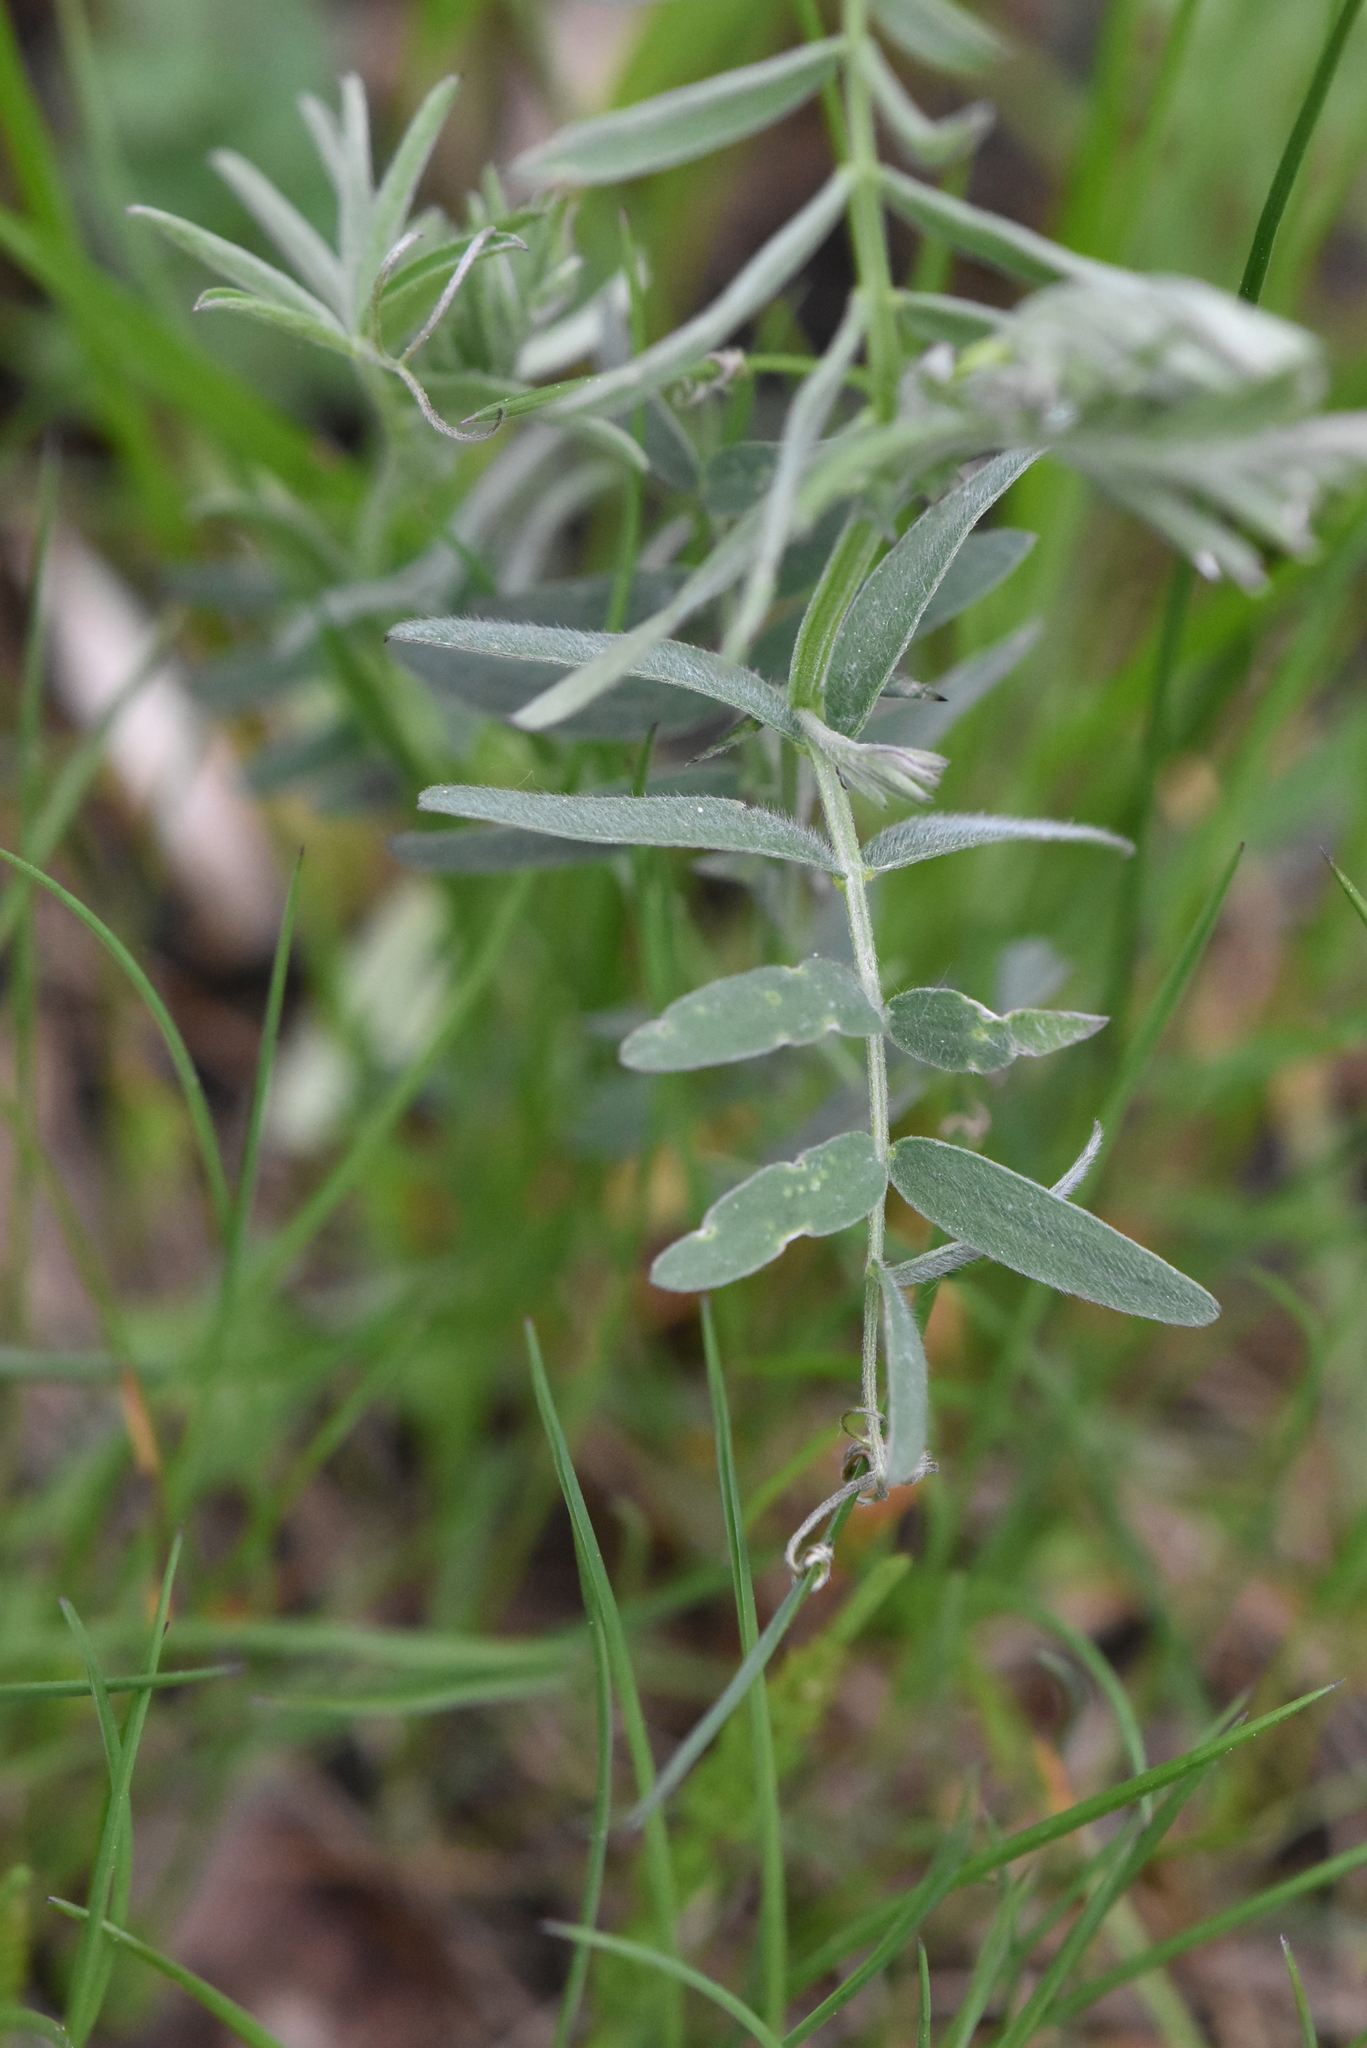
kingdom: Plantae
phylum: Tracheophyta
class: Magnoliopsida
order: Fabales
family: Fabaceae
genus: Vicia
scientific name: Vicia cracca
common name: Bird vetch
